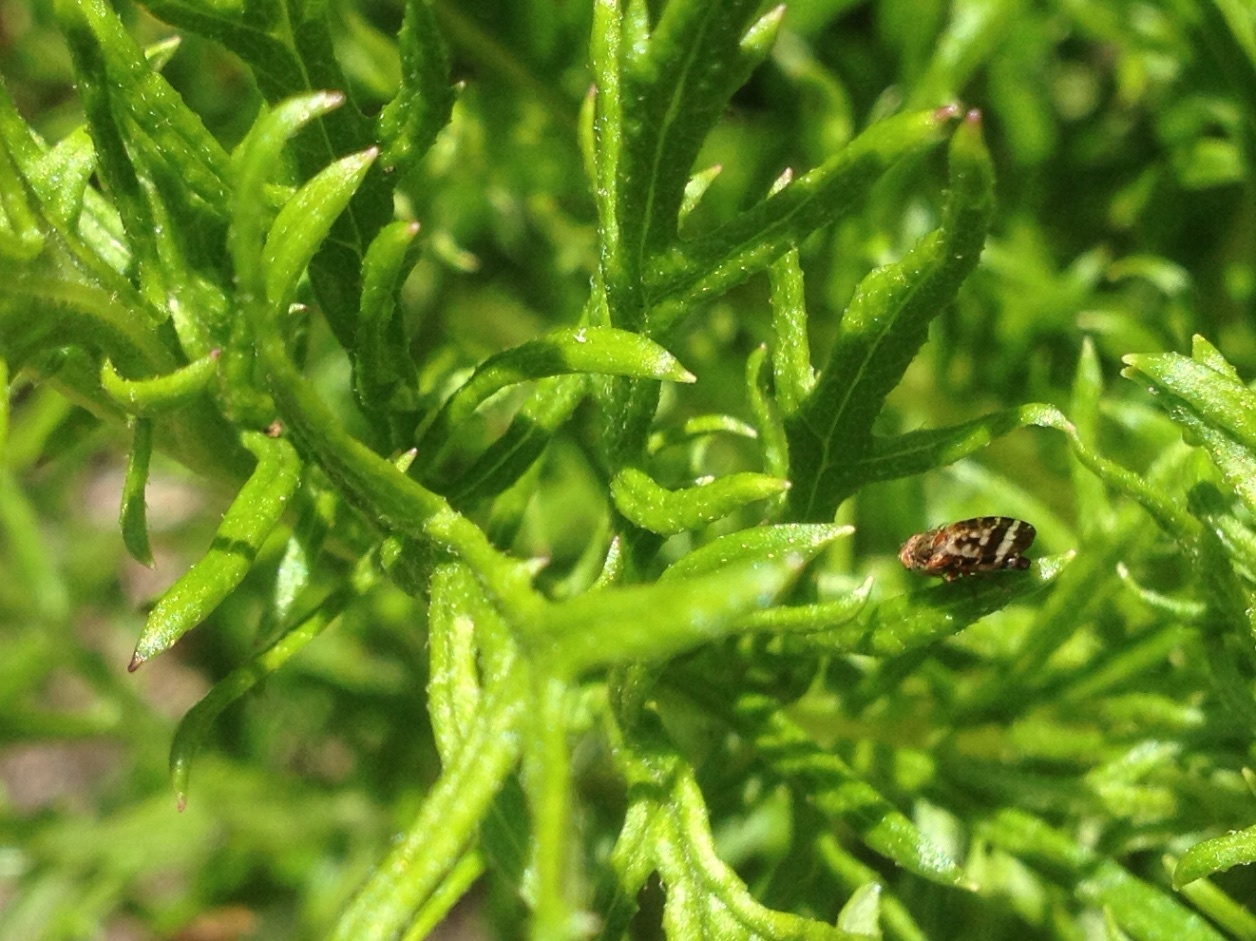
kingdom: Animalia
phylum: Arthropoda
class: Insecta
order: Diptera
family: Tephritidae
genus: Sphenella
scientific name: Sphenella
